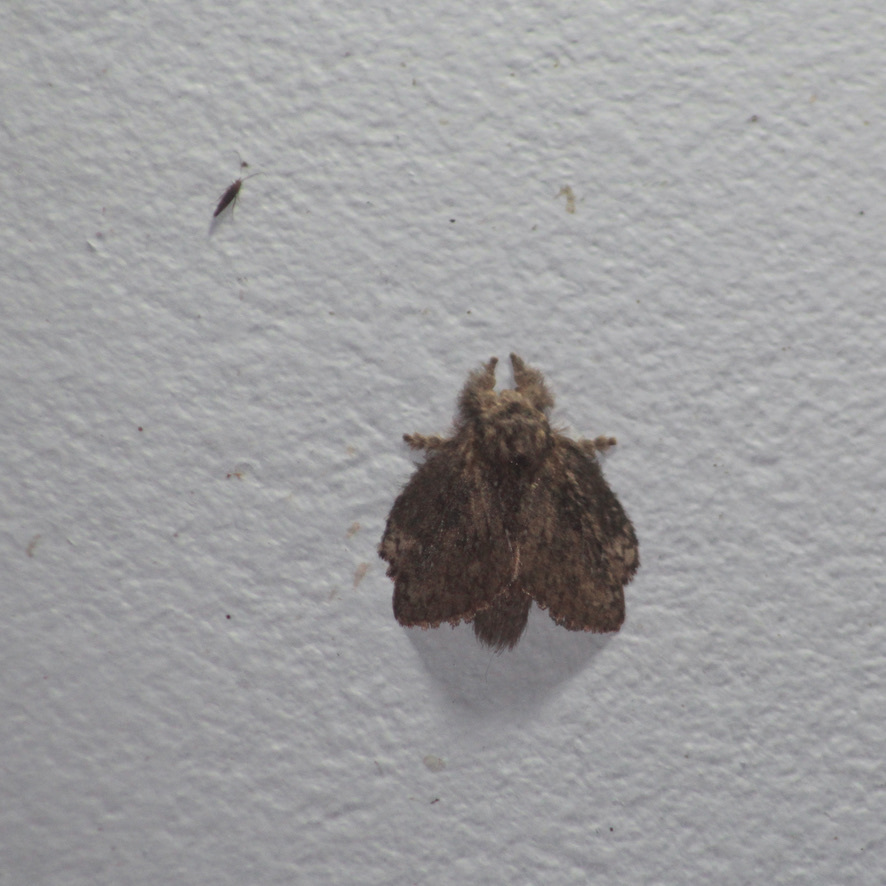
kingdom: Animalia
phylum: Arthropoda
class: Insecta
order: Lepidoptera
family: Lasiocampidae
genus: Euglyphis
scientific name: Euglyphis horrifer
